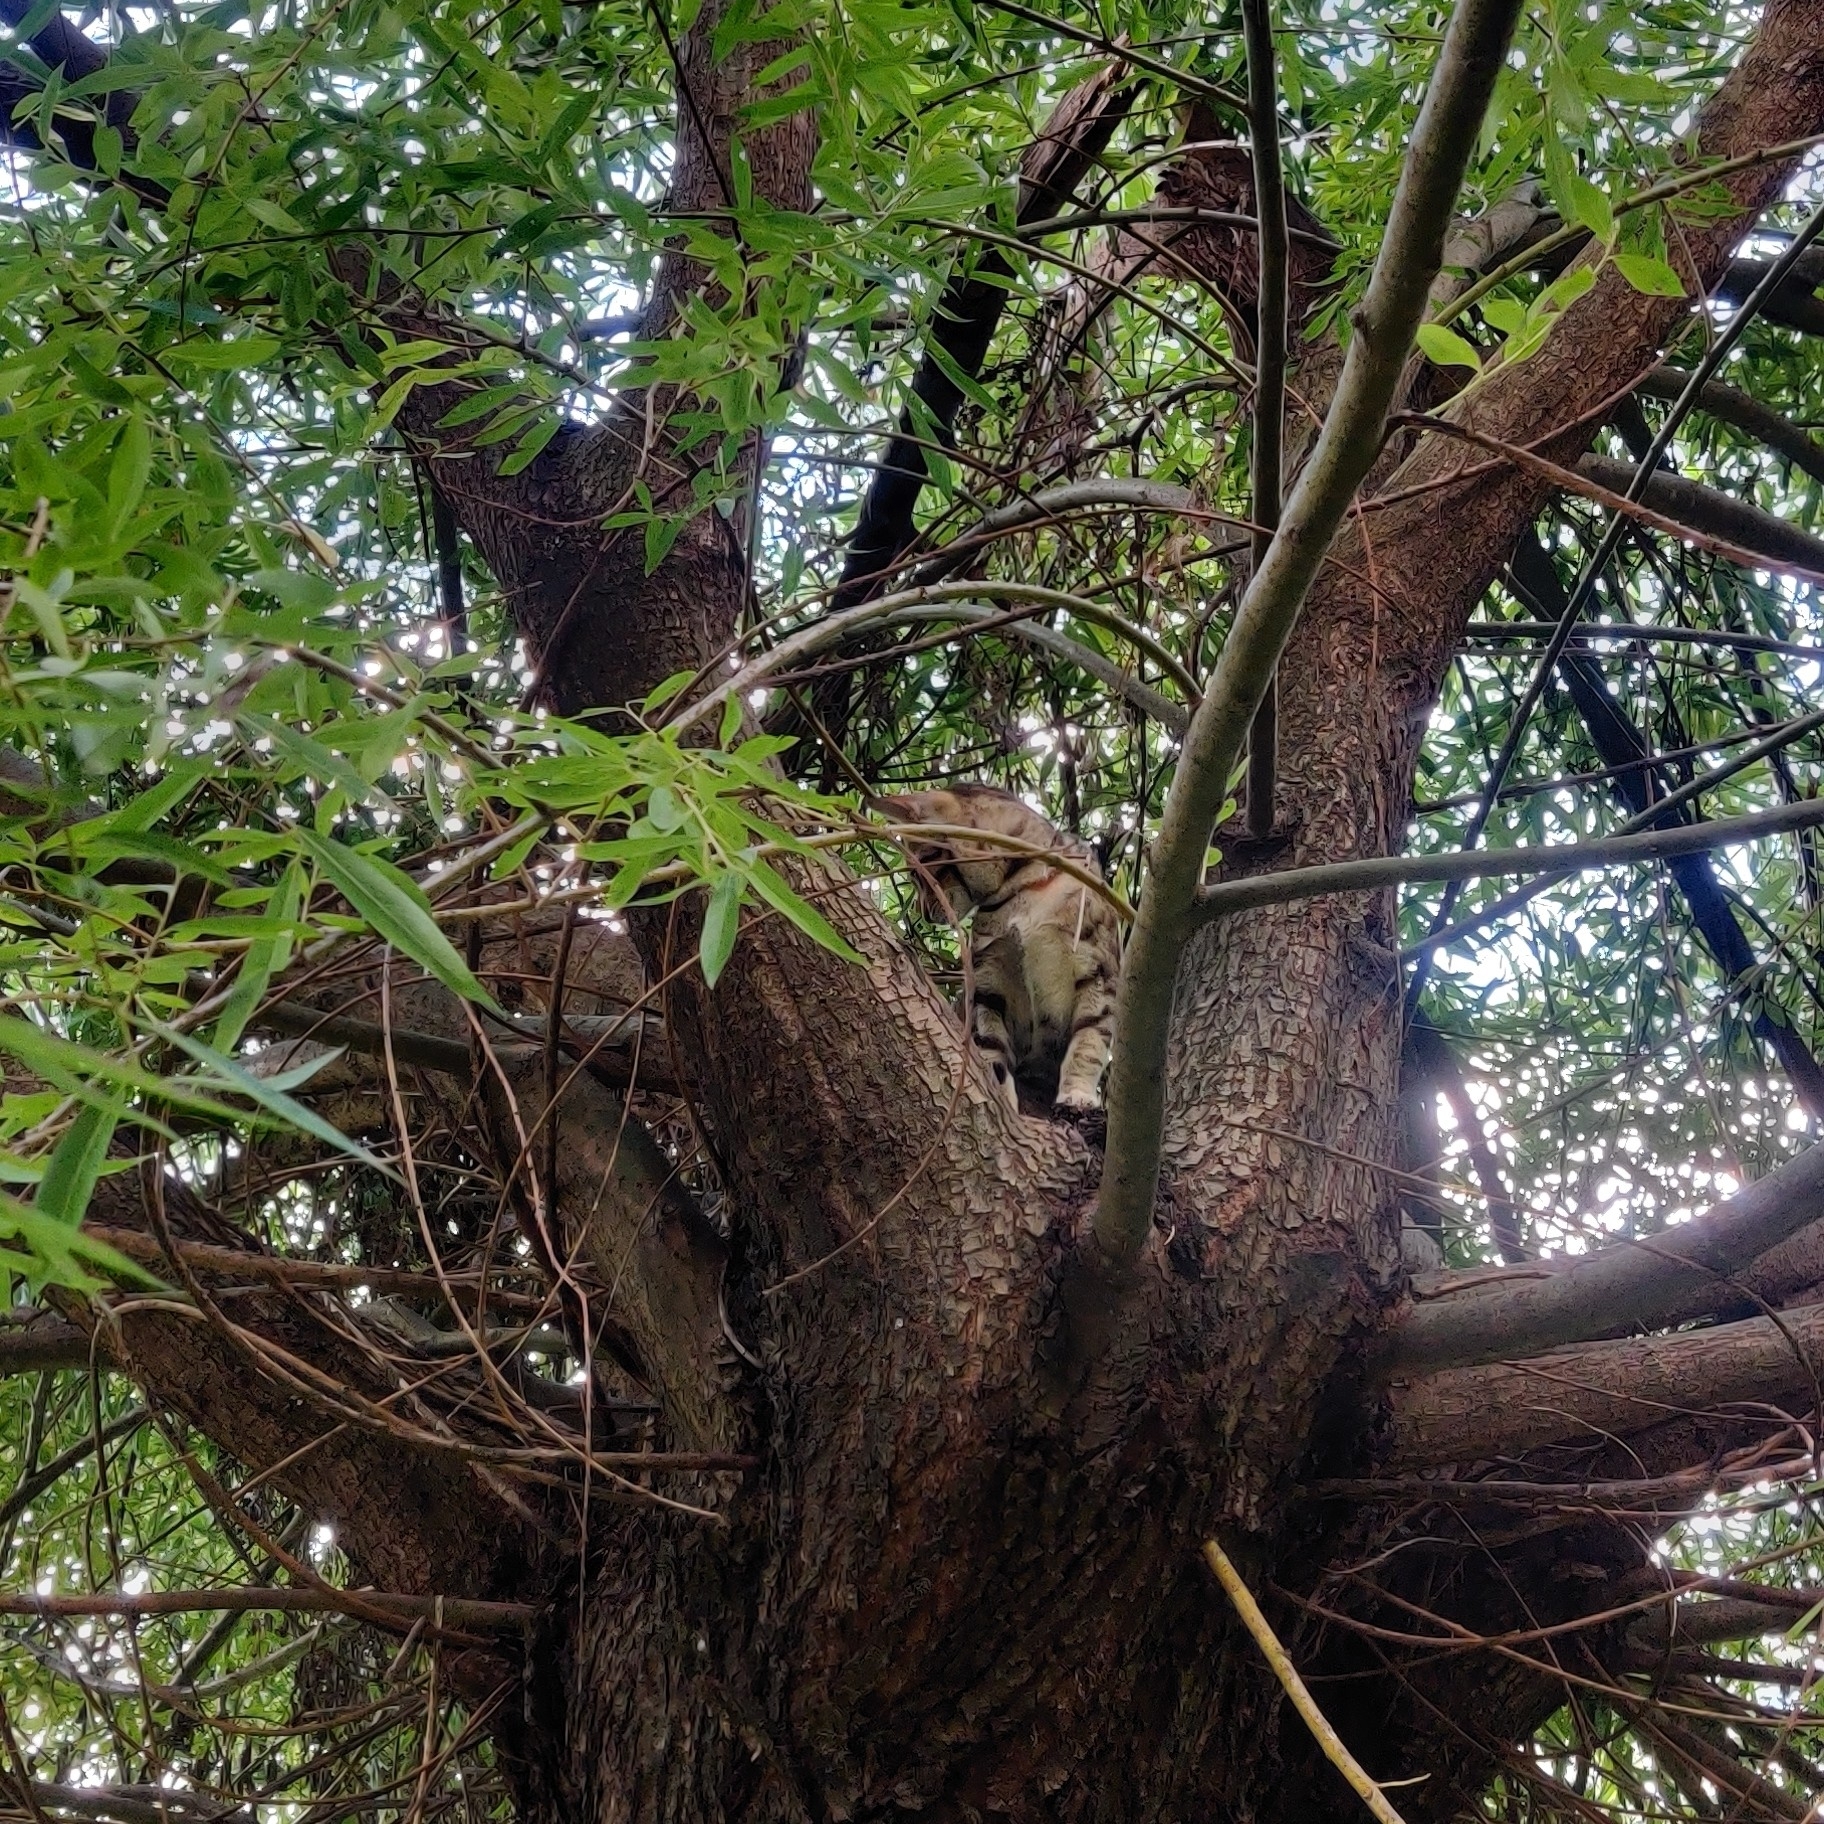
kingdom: Animalia
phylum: Chordata
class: Mammalia
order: Carnivora
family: Felidae
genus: Felis
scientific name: Felis catus
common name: Domestic cat
